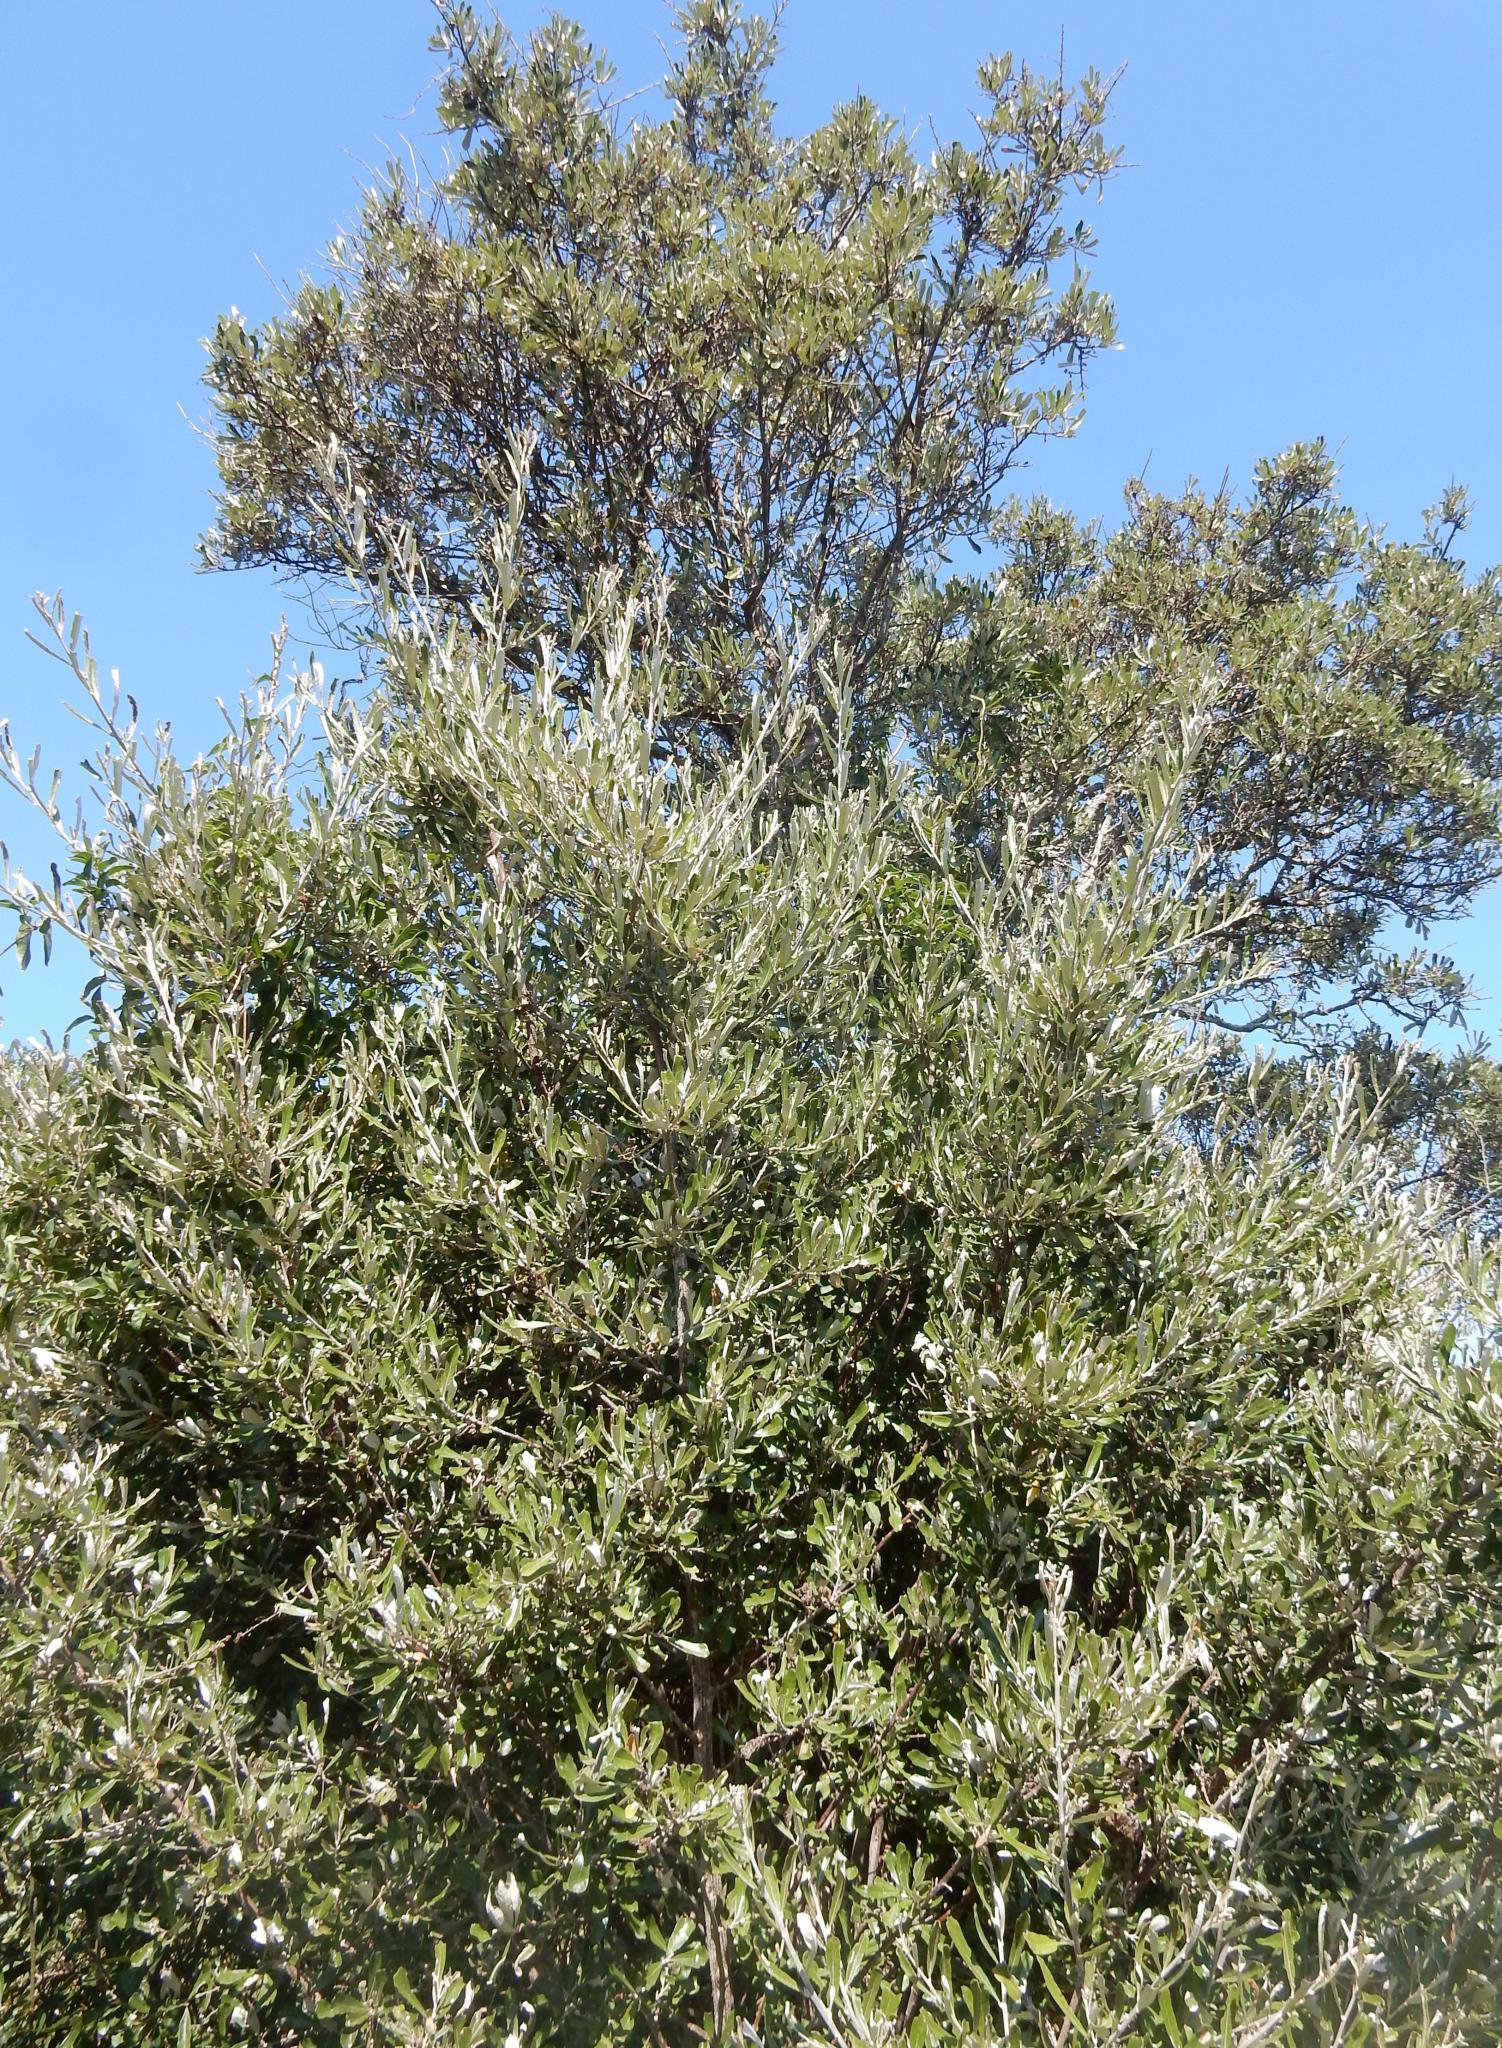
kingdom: Plantae
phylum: Tracheophyta
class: Magnoliopsida
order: Asterales
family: Asteraceae
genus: Brachylaena
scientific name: Brachylaena elliptica
